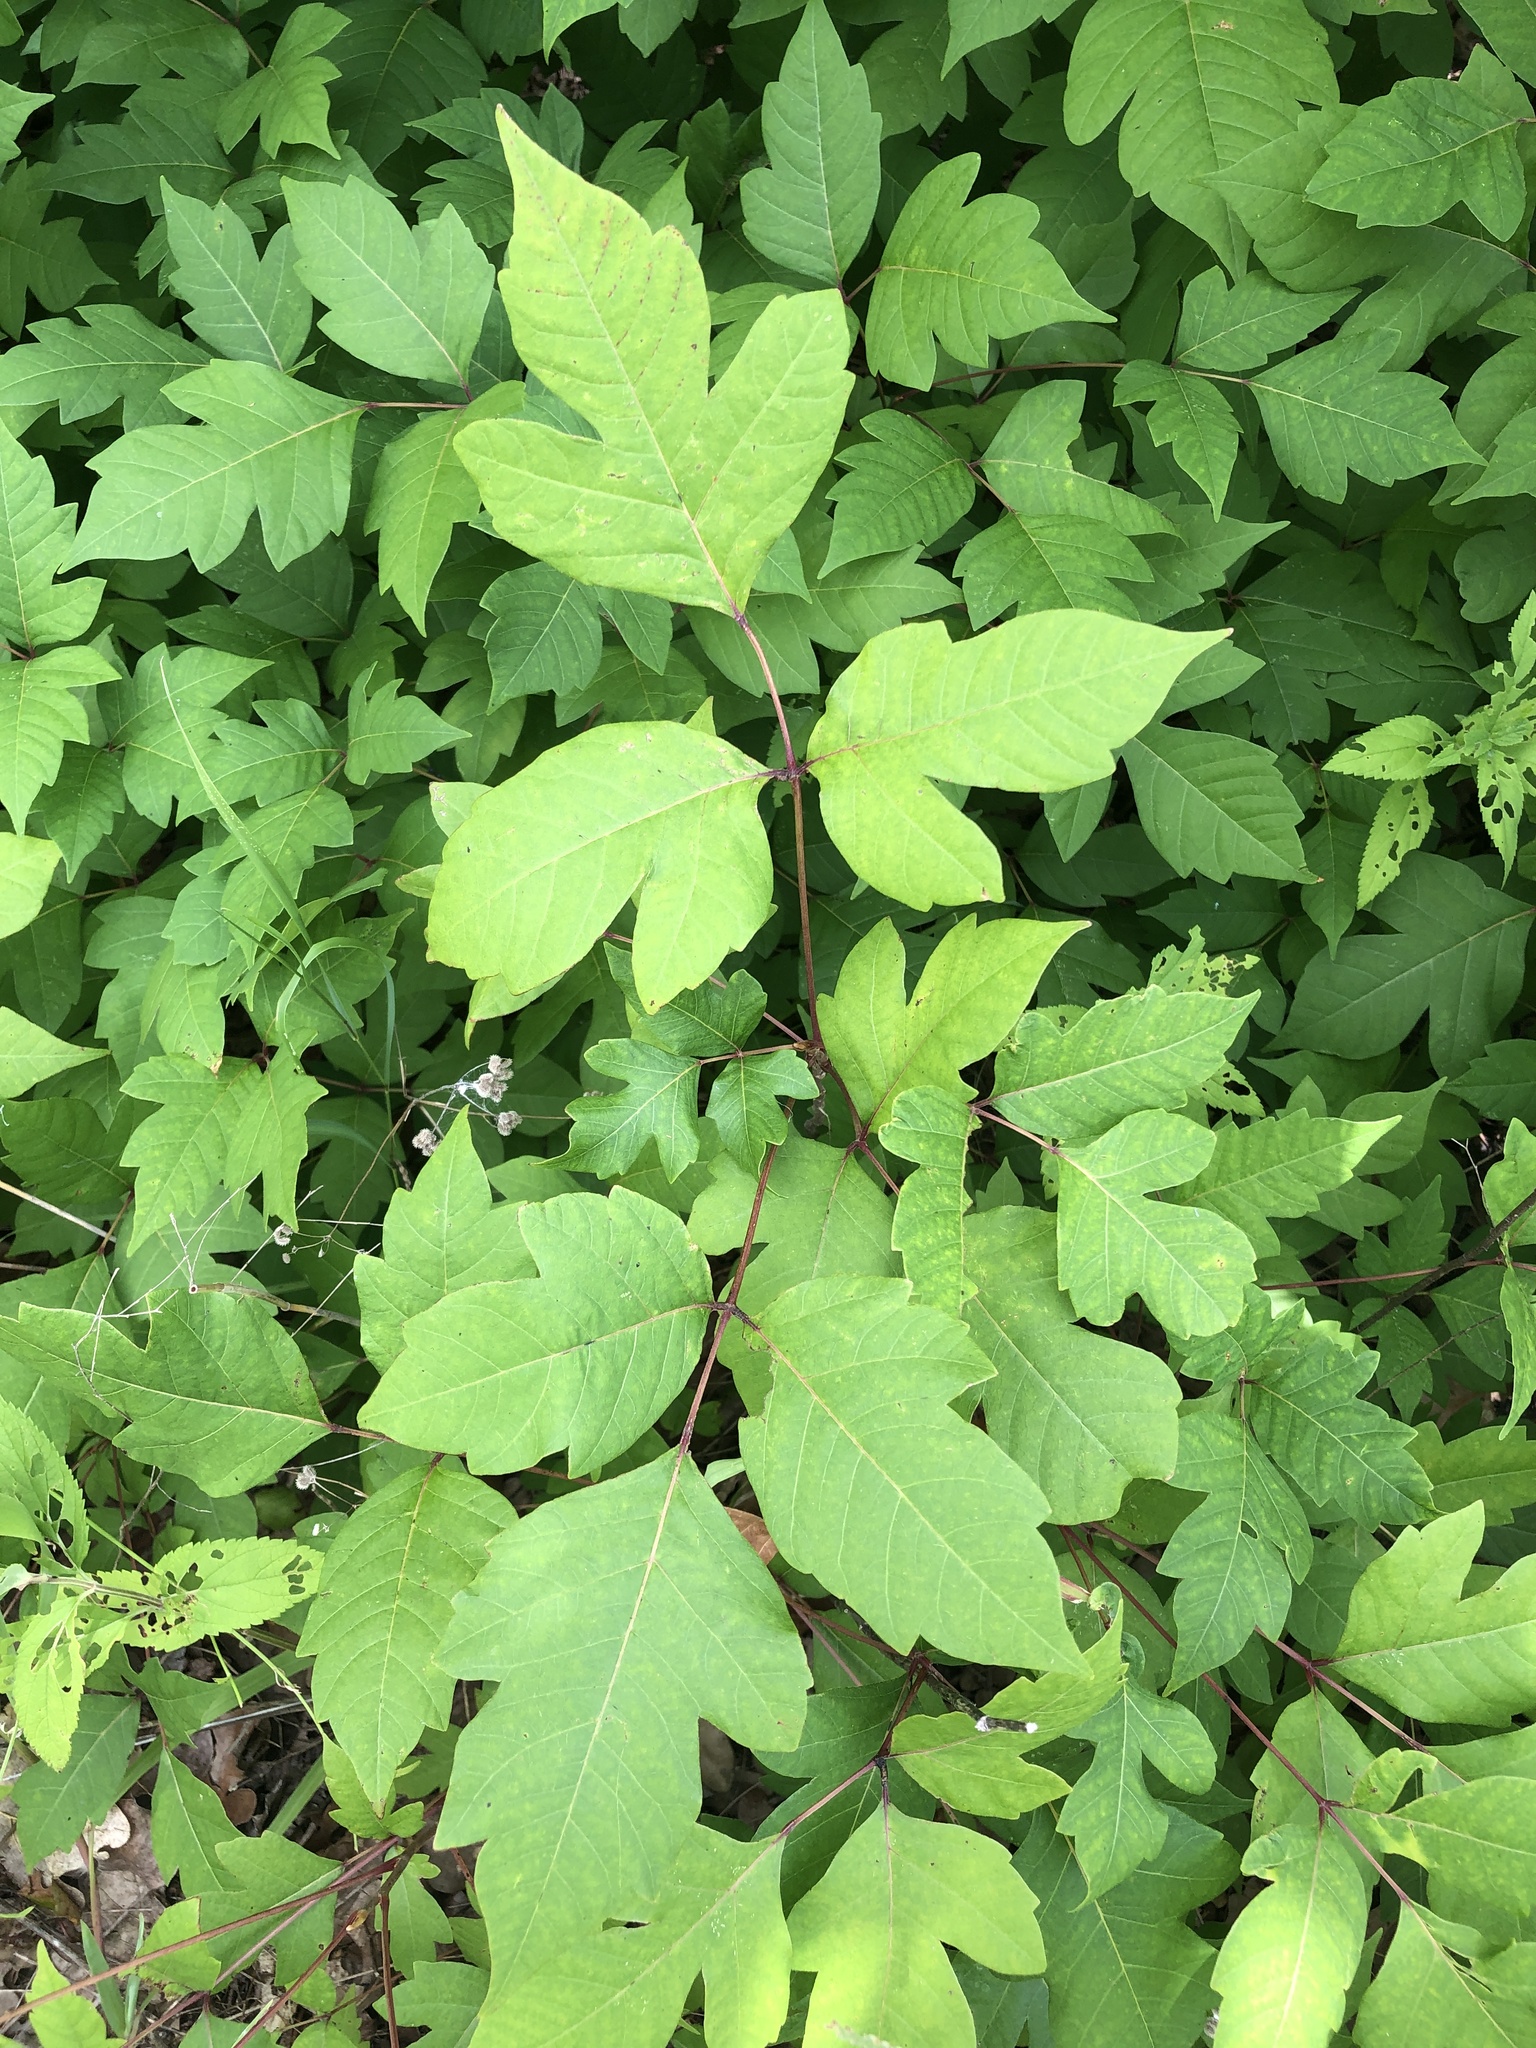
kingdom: Plantae
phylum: Tracheophyta
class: Magnoliopsida
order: Sapindales
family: Anacardiaceae
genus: Toxicodendron
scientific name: Toxicodendron radicans
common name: Poison ivy
